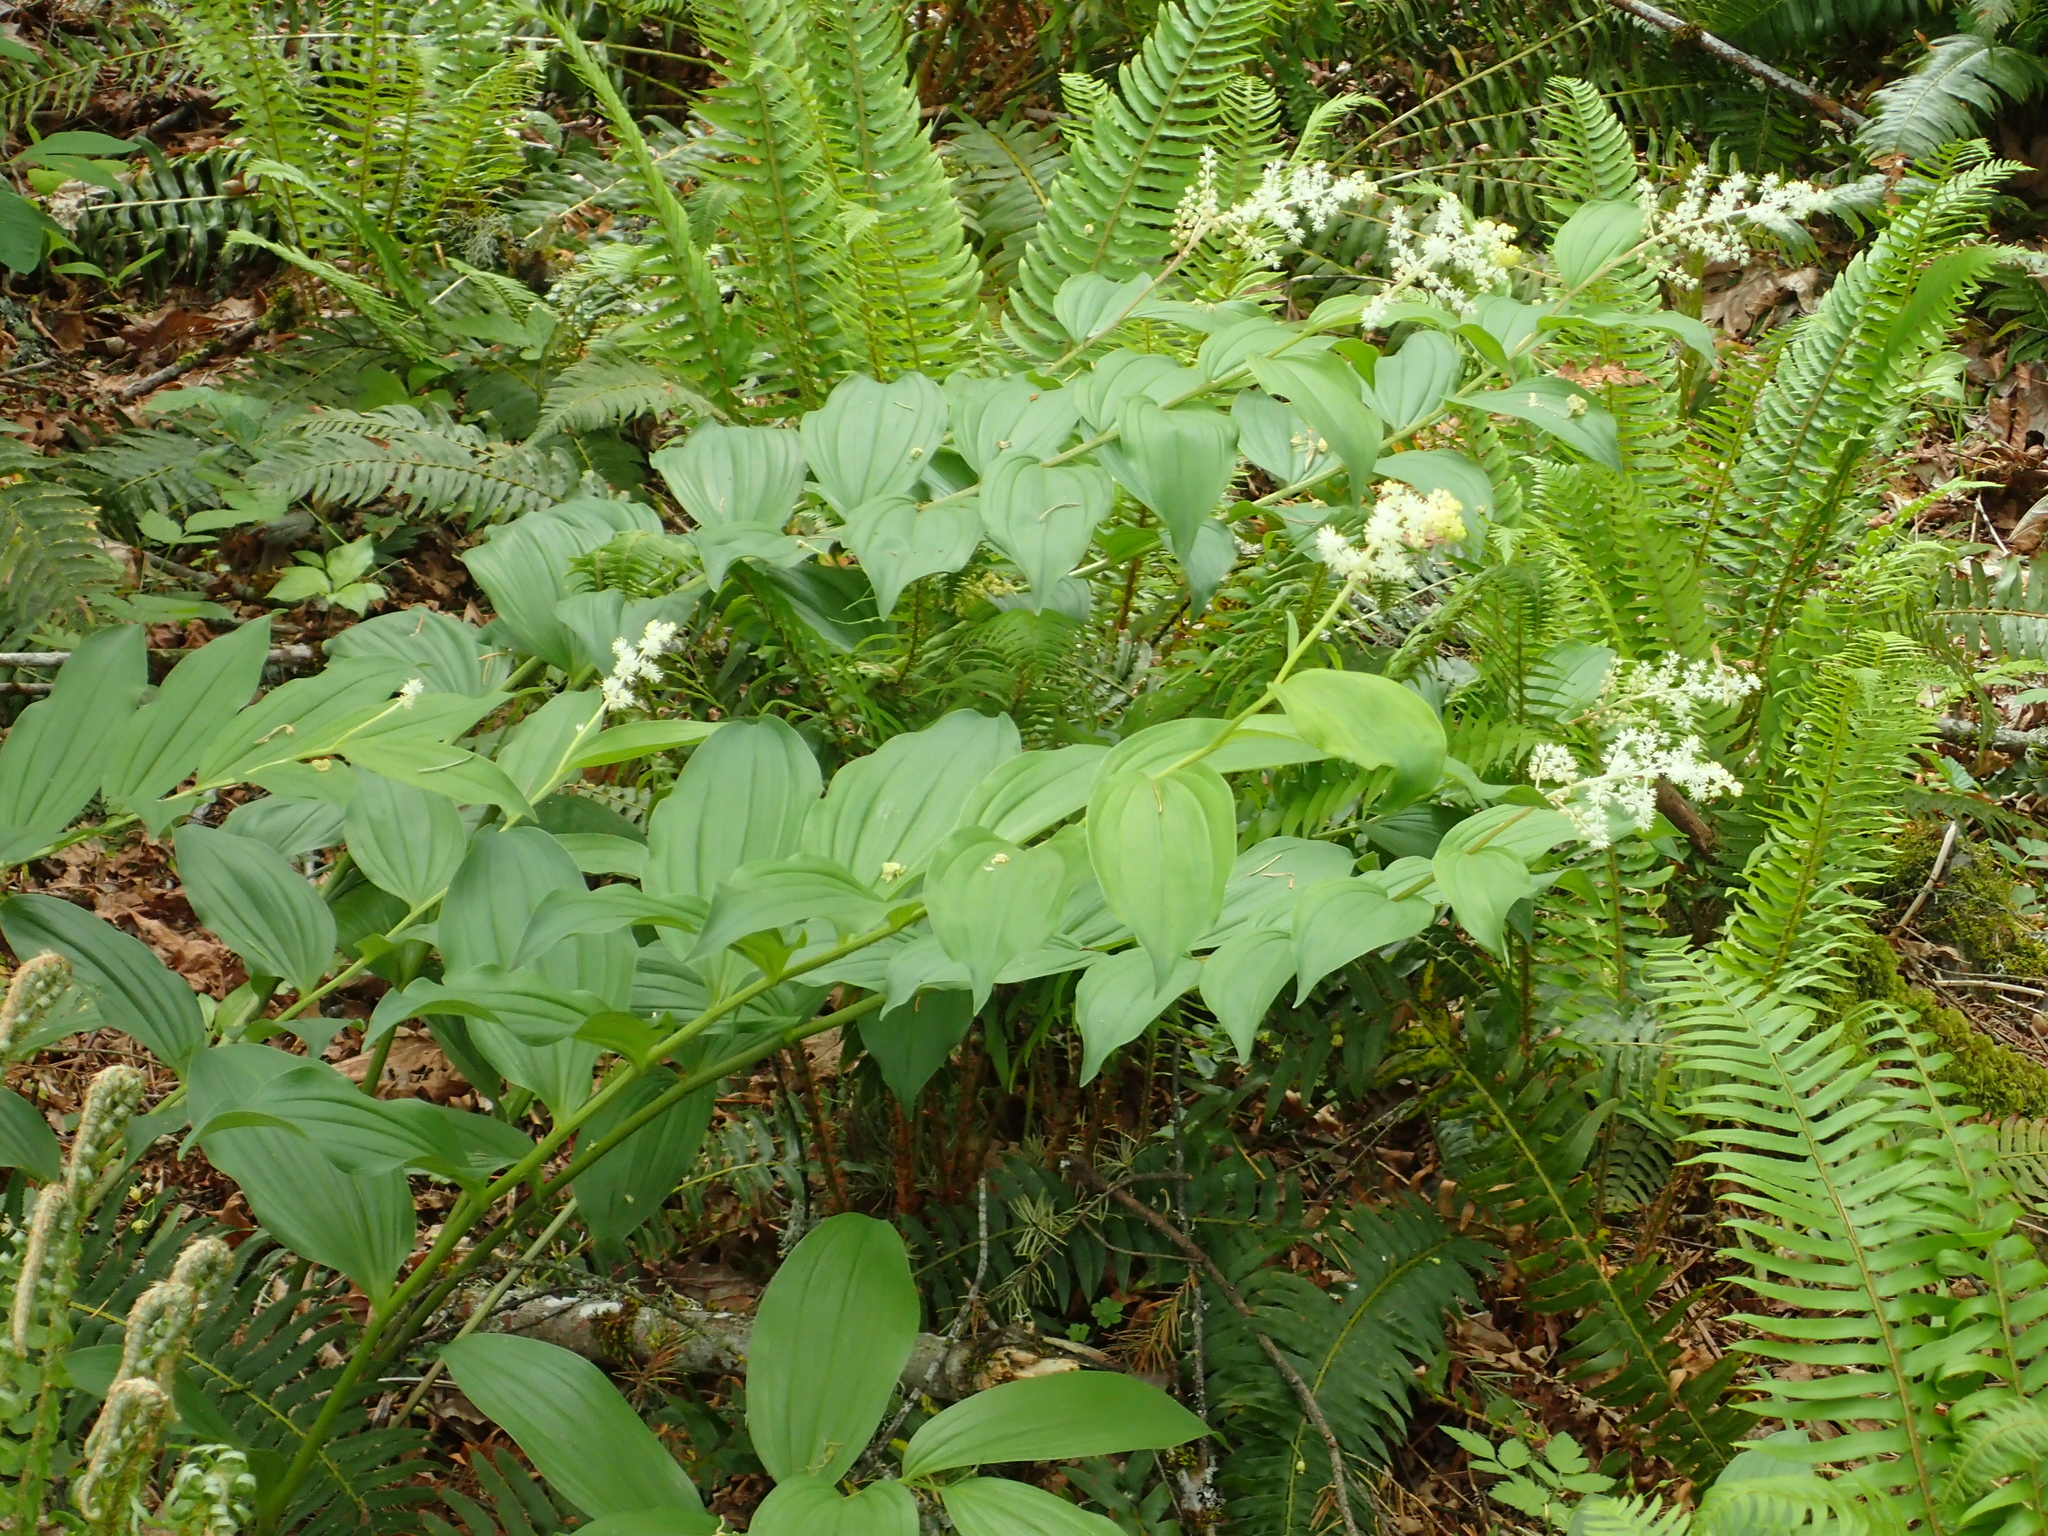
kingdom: Plantae
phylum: Tracheophyta
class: Liliopsida
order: Asparagales
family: Asparagaceae
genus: Maianthemum
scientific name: Maianthemum racemosum
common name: False spikenard
